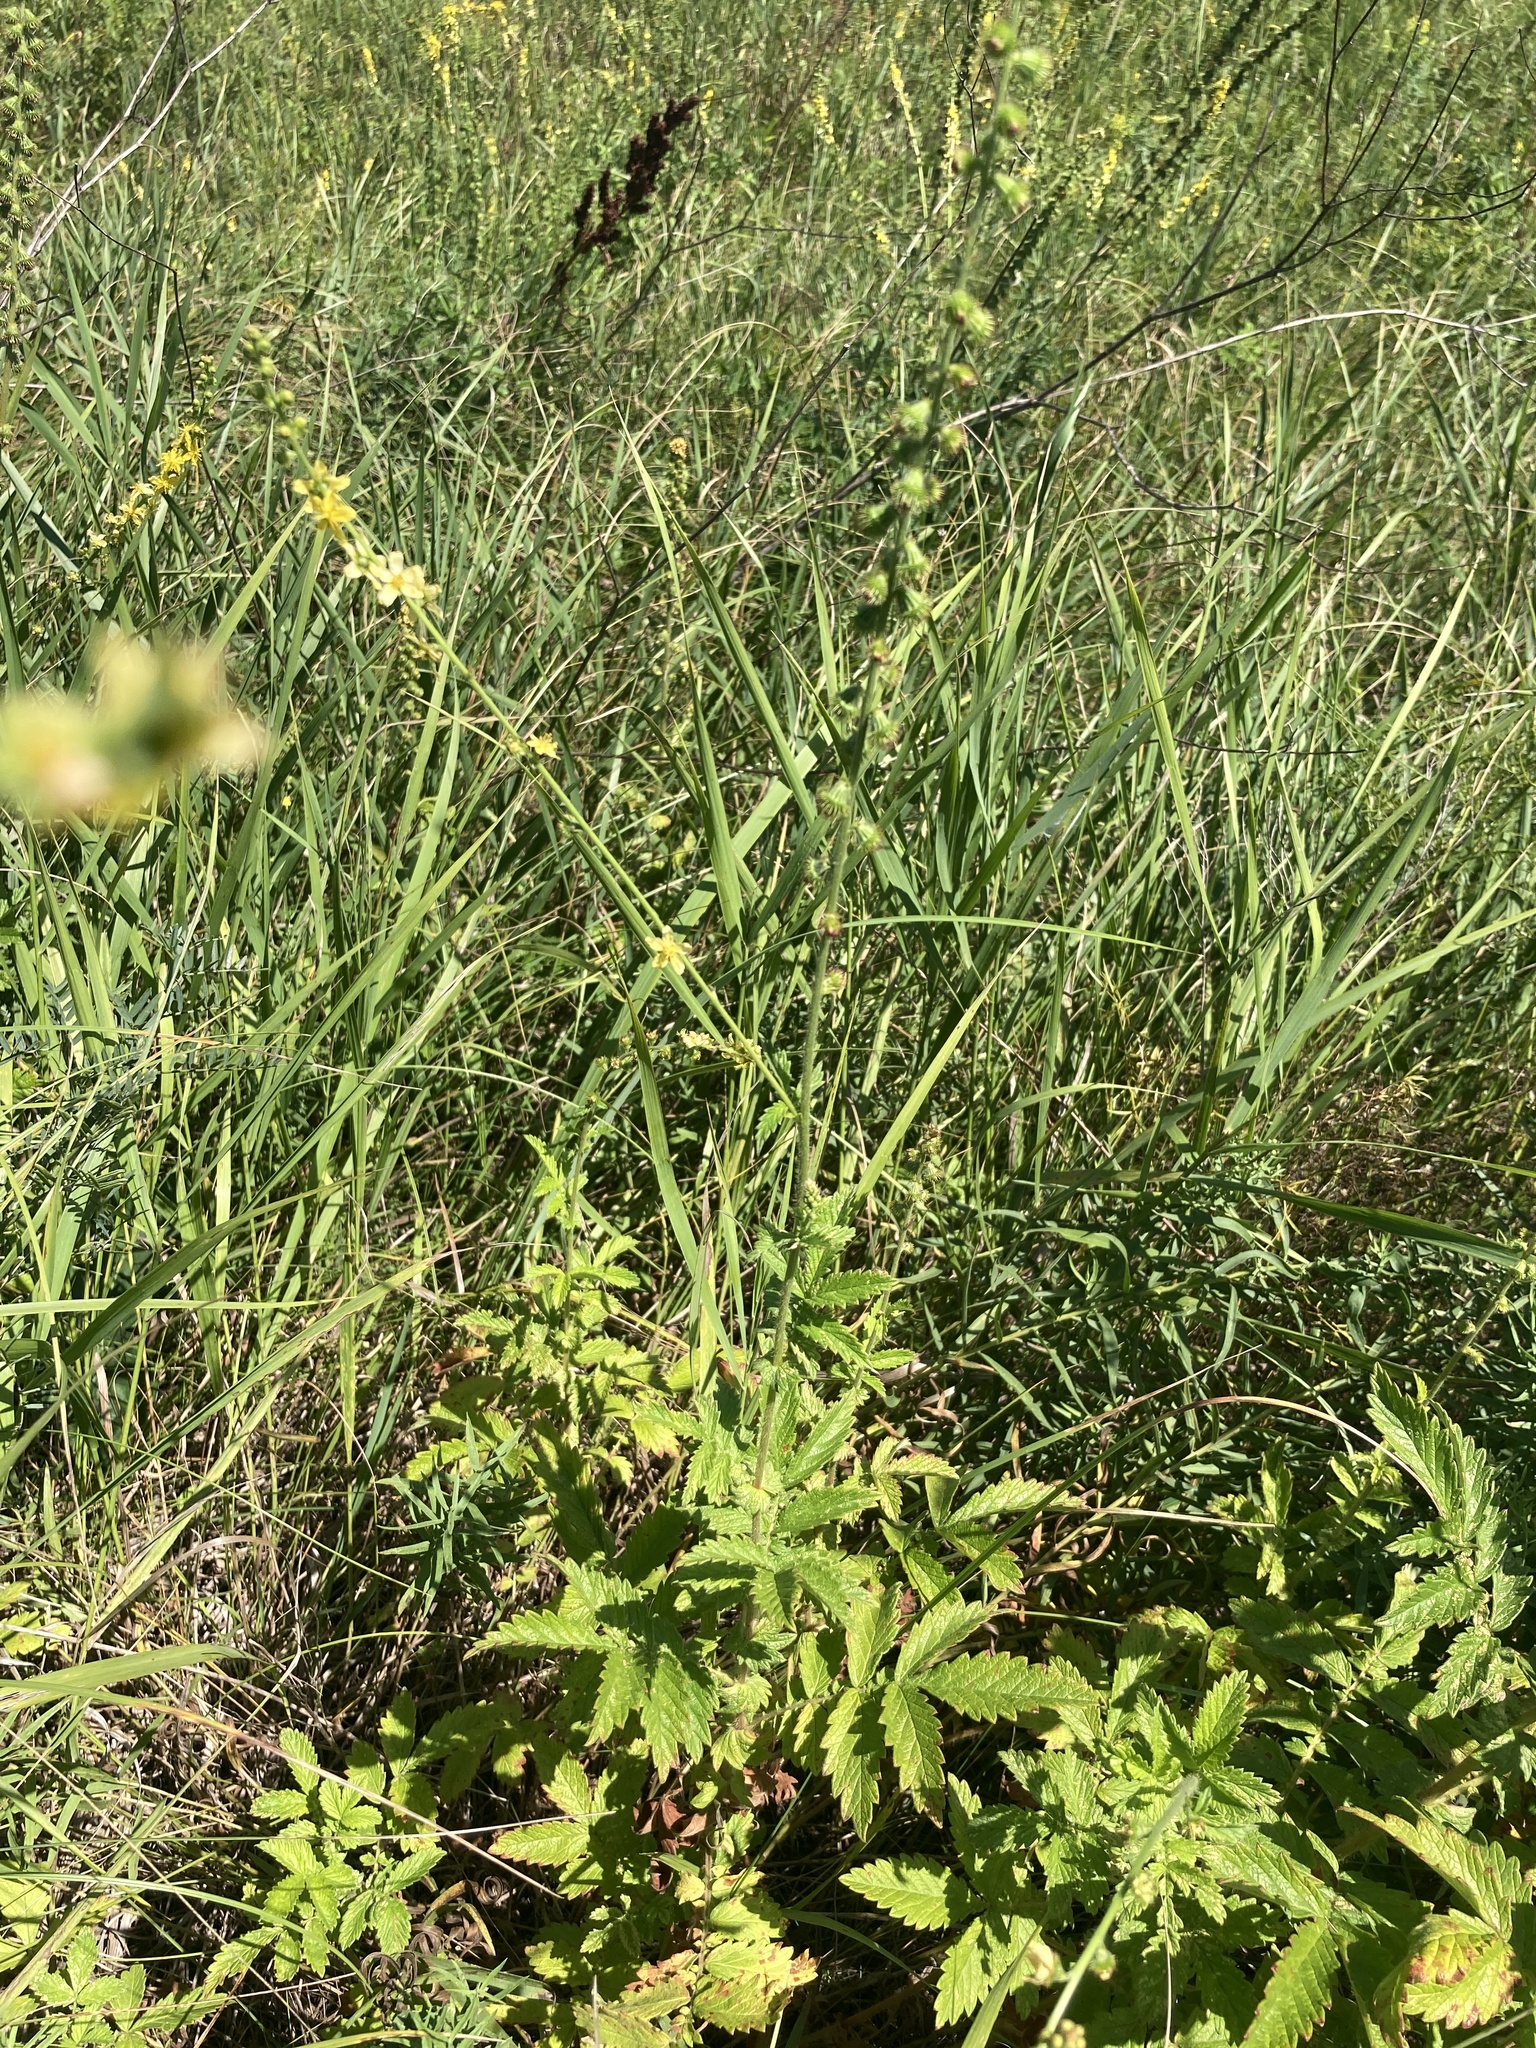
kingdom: Plantae
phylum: Tracheophyta
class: Magnoliopsida
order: Rosales
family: Rosaceae
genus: Agrimonia
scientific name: Agrimonia eupatoria
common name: Agrimony
